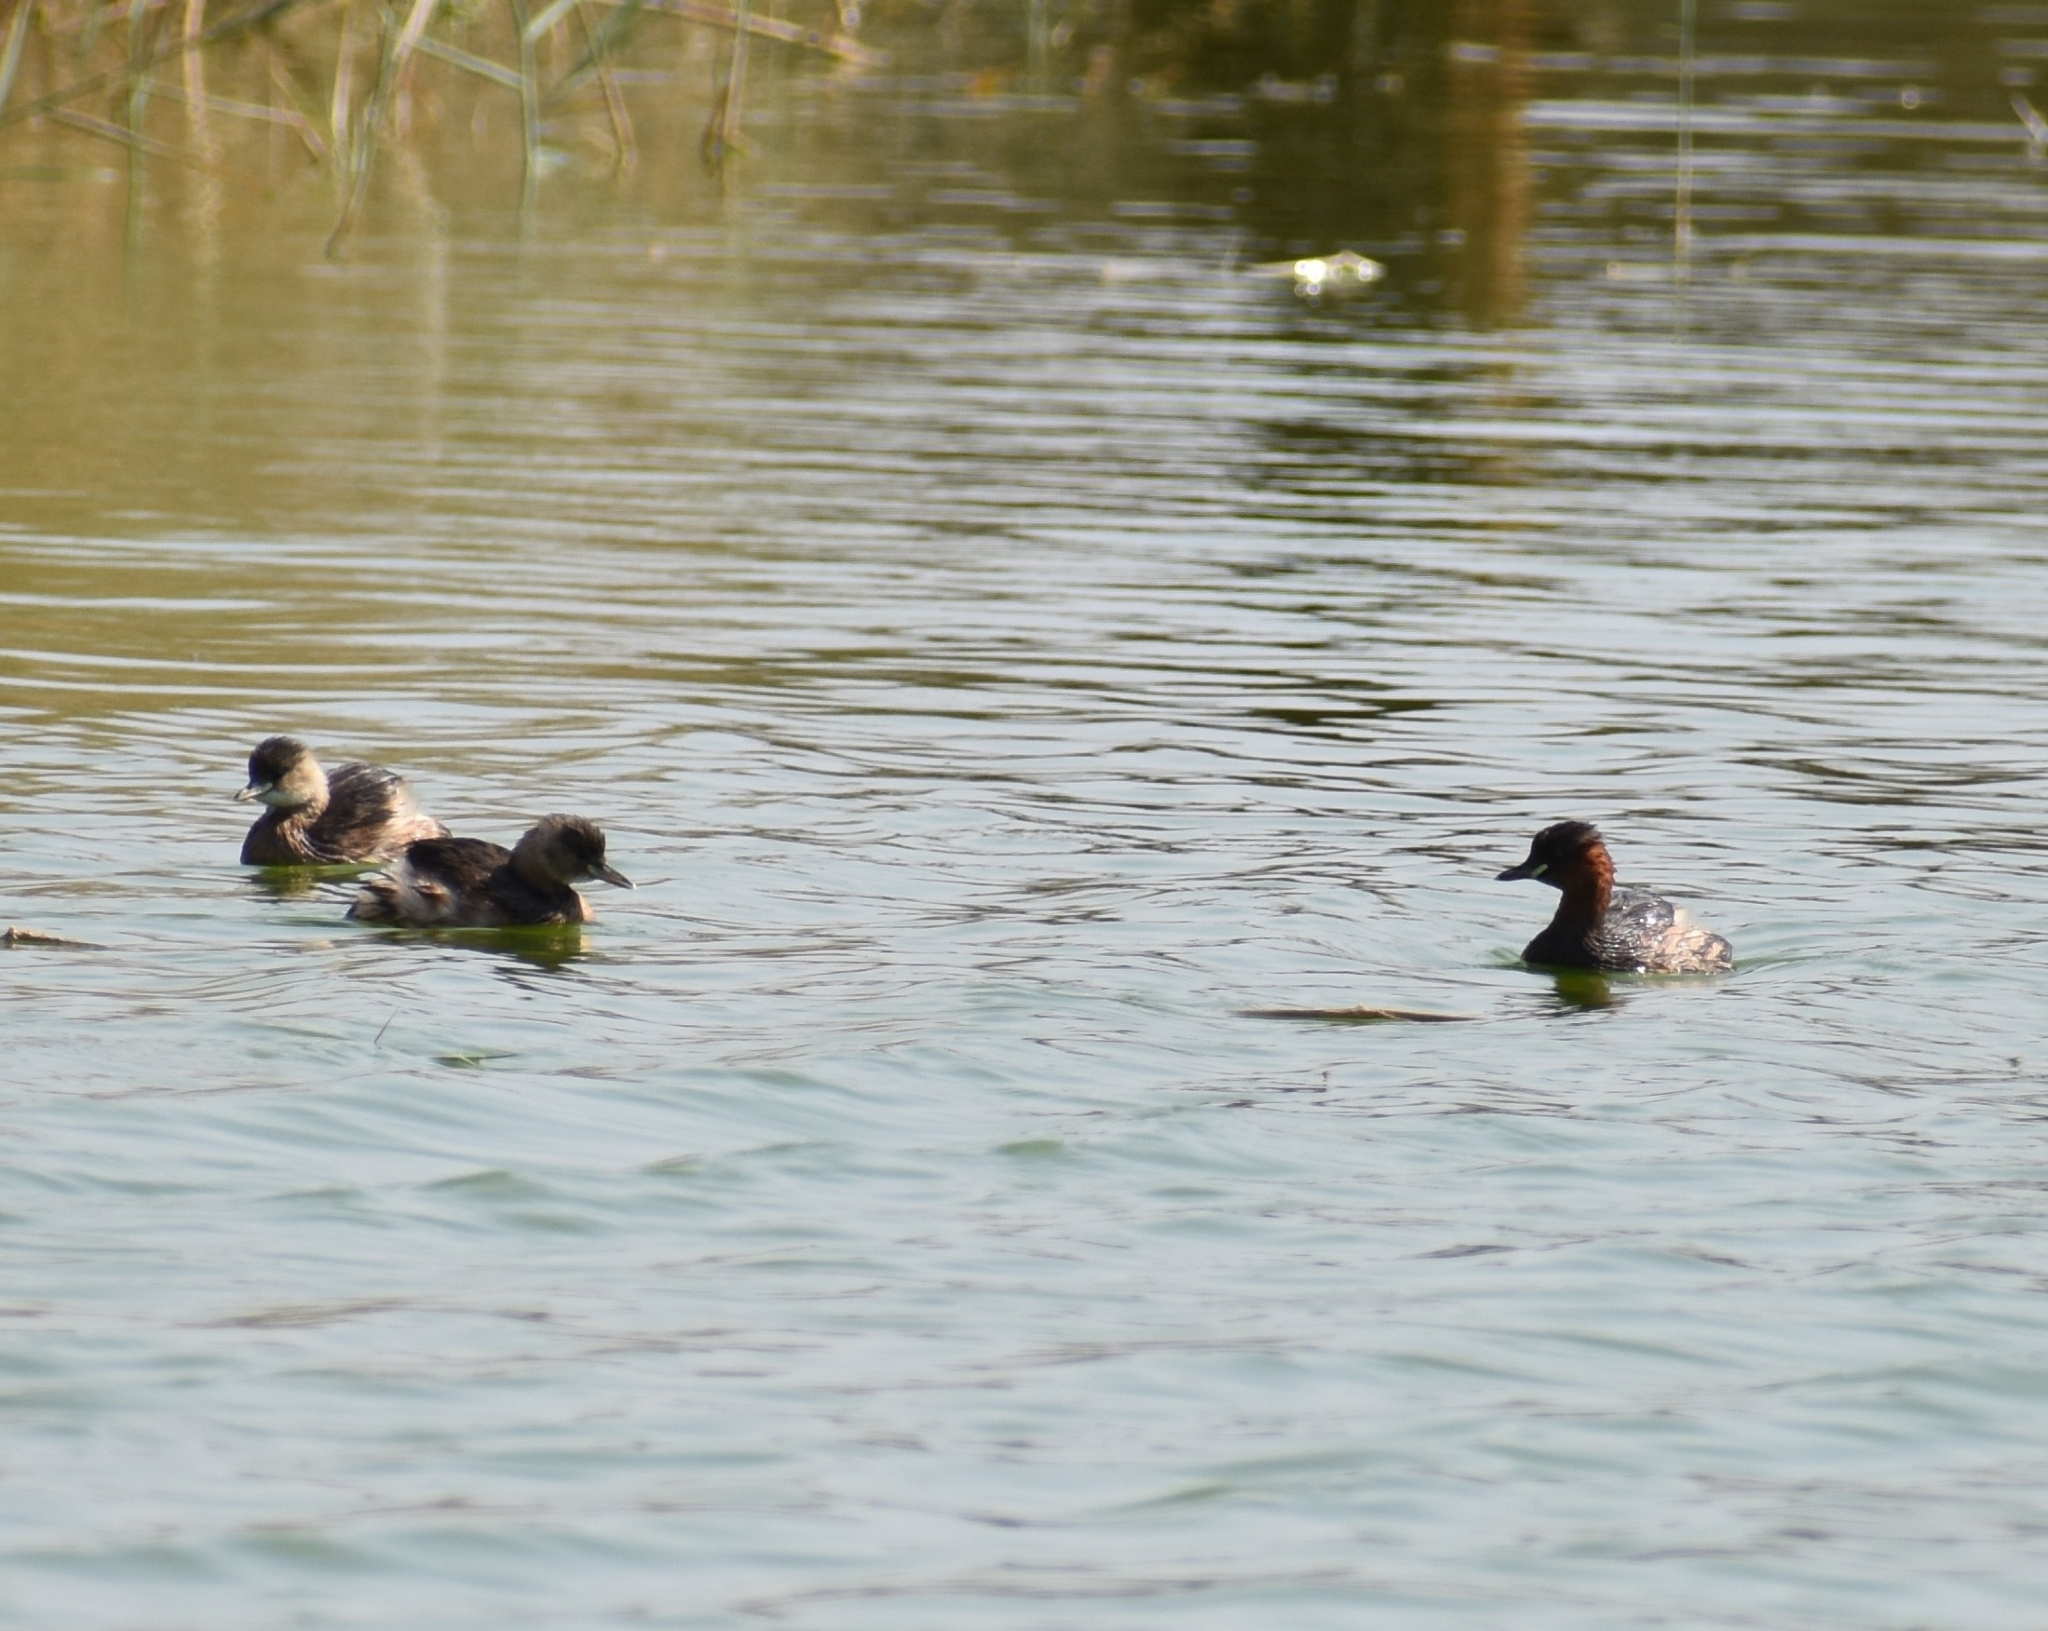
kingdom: Animalia
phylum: Chordata
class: Aves
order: Podicipediformes
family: Podicipedidae
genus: Tachybaptus
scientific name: Tachybaptus ruficollis
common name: Little grebe
